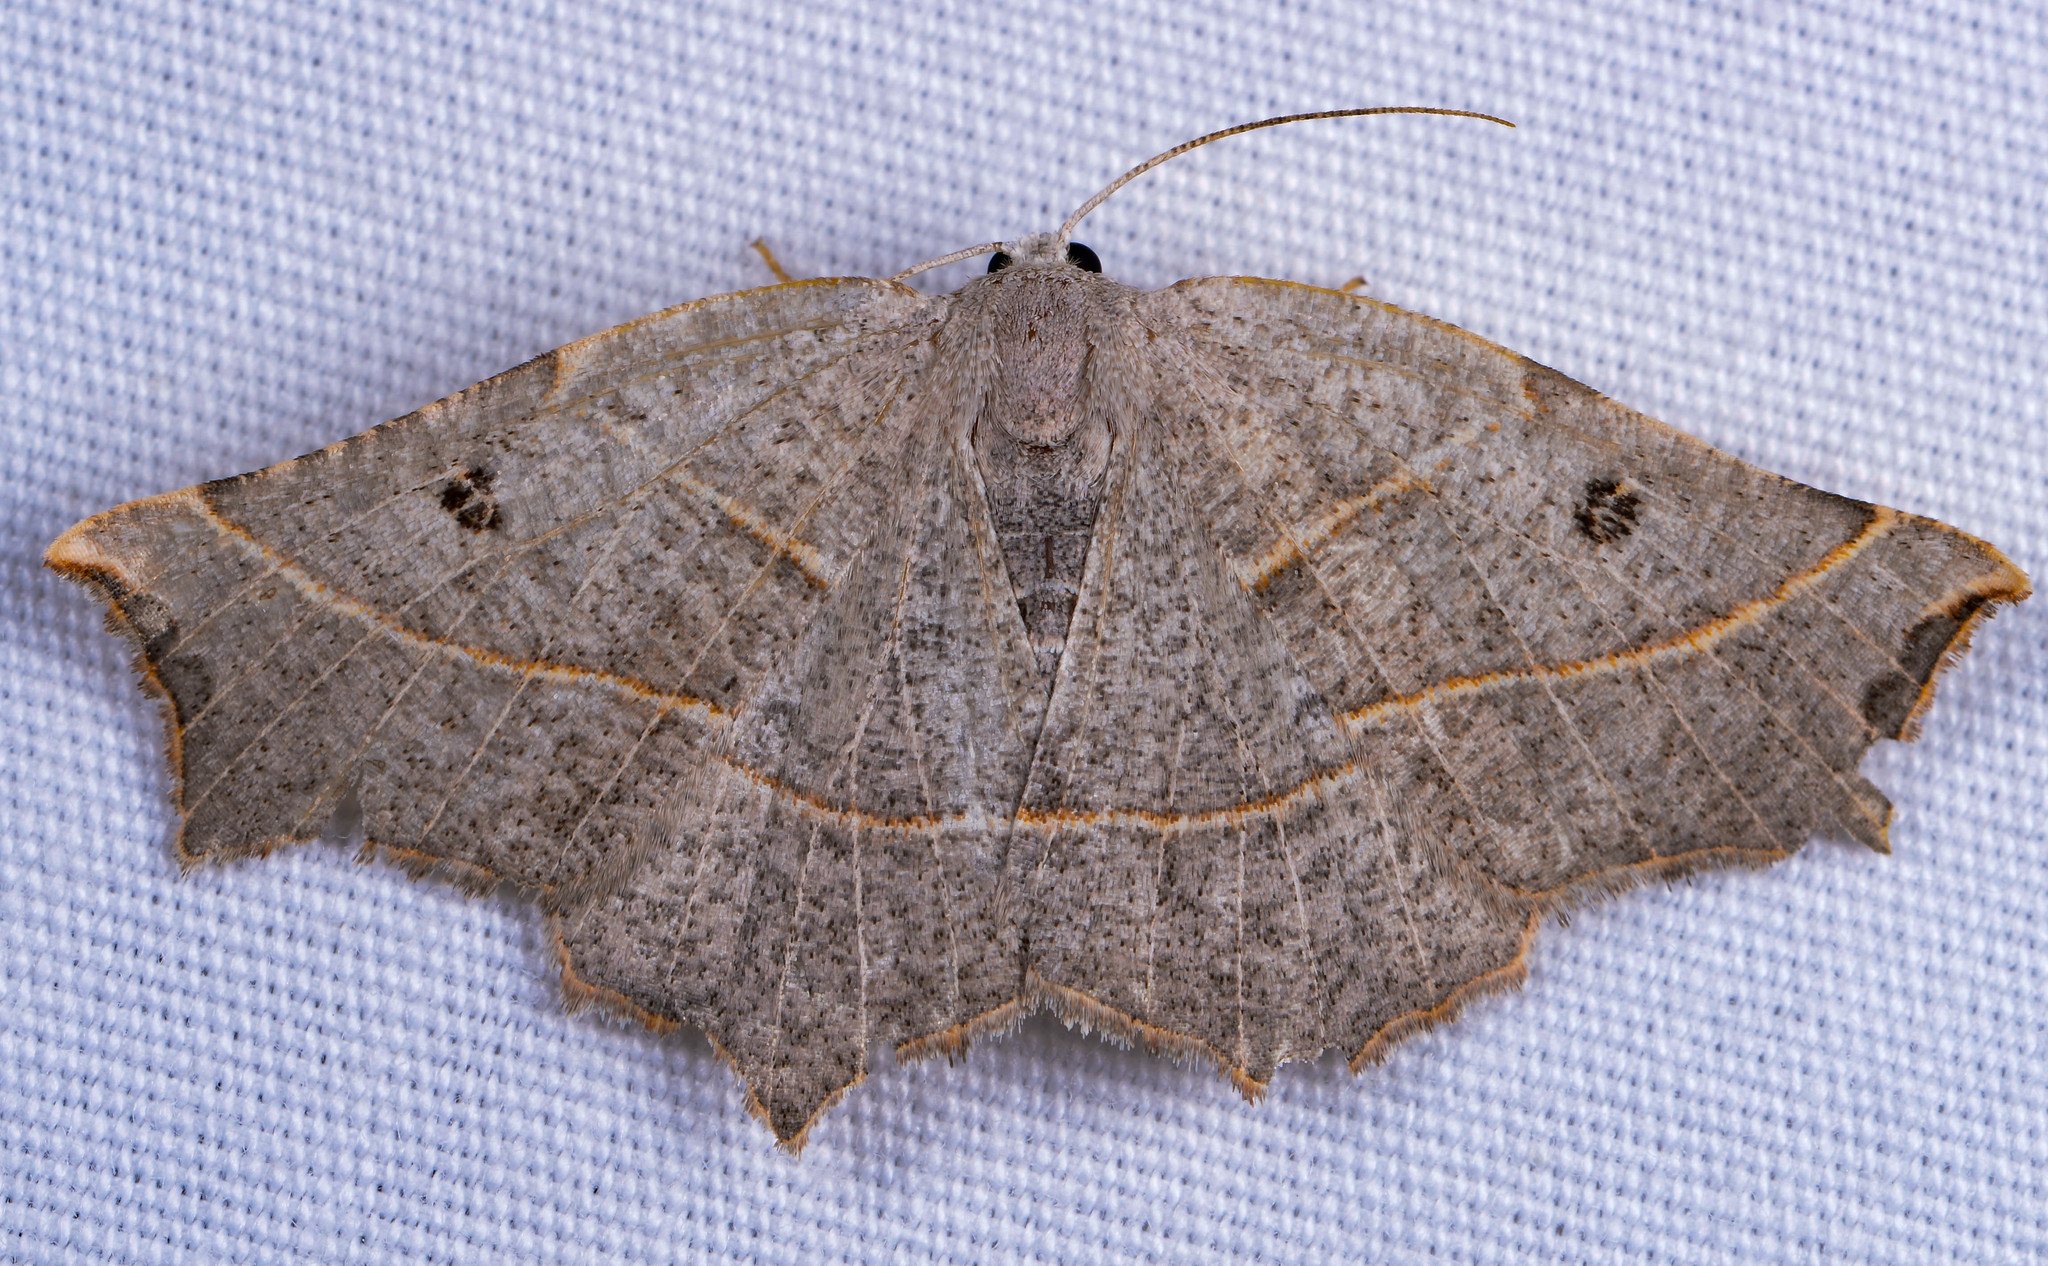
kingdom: Animalia
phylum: Arthropoda
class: Insecta
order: Lepidoptera
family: Geometridae
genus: Metanema
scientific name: Metanema inatomaria
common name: Pale metanema
